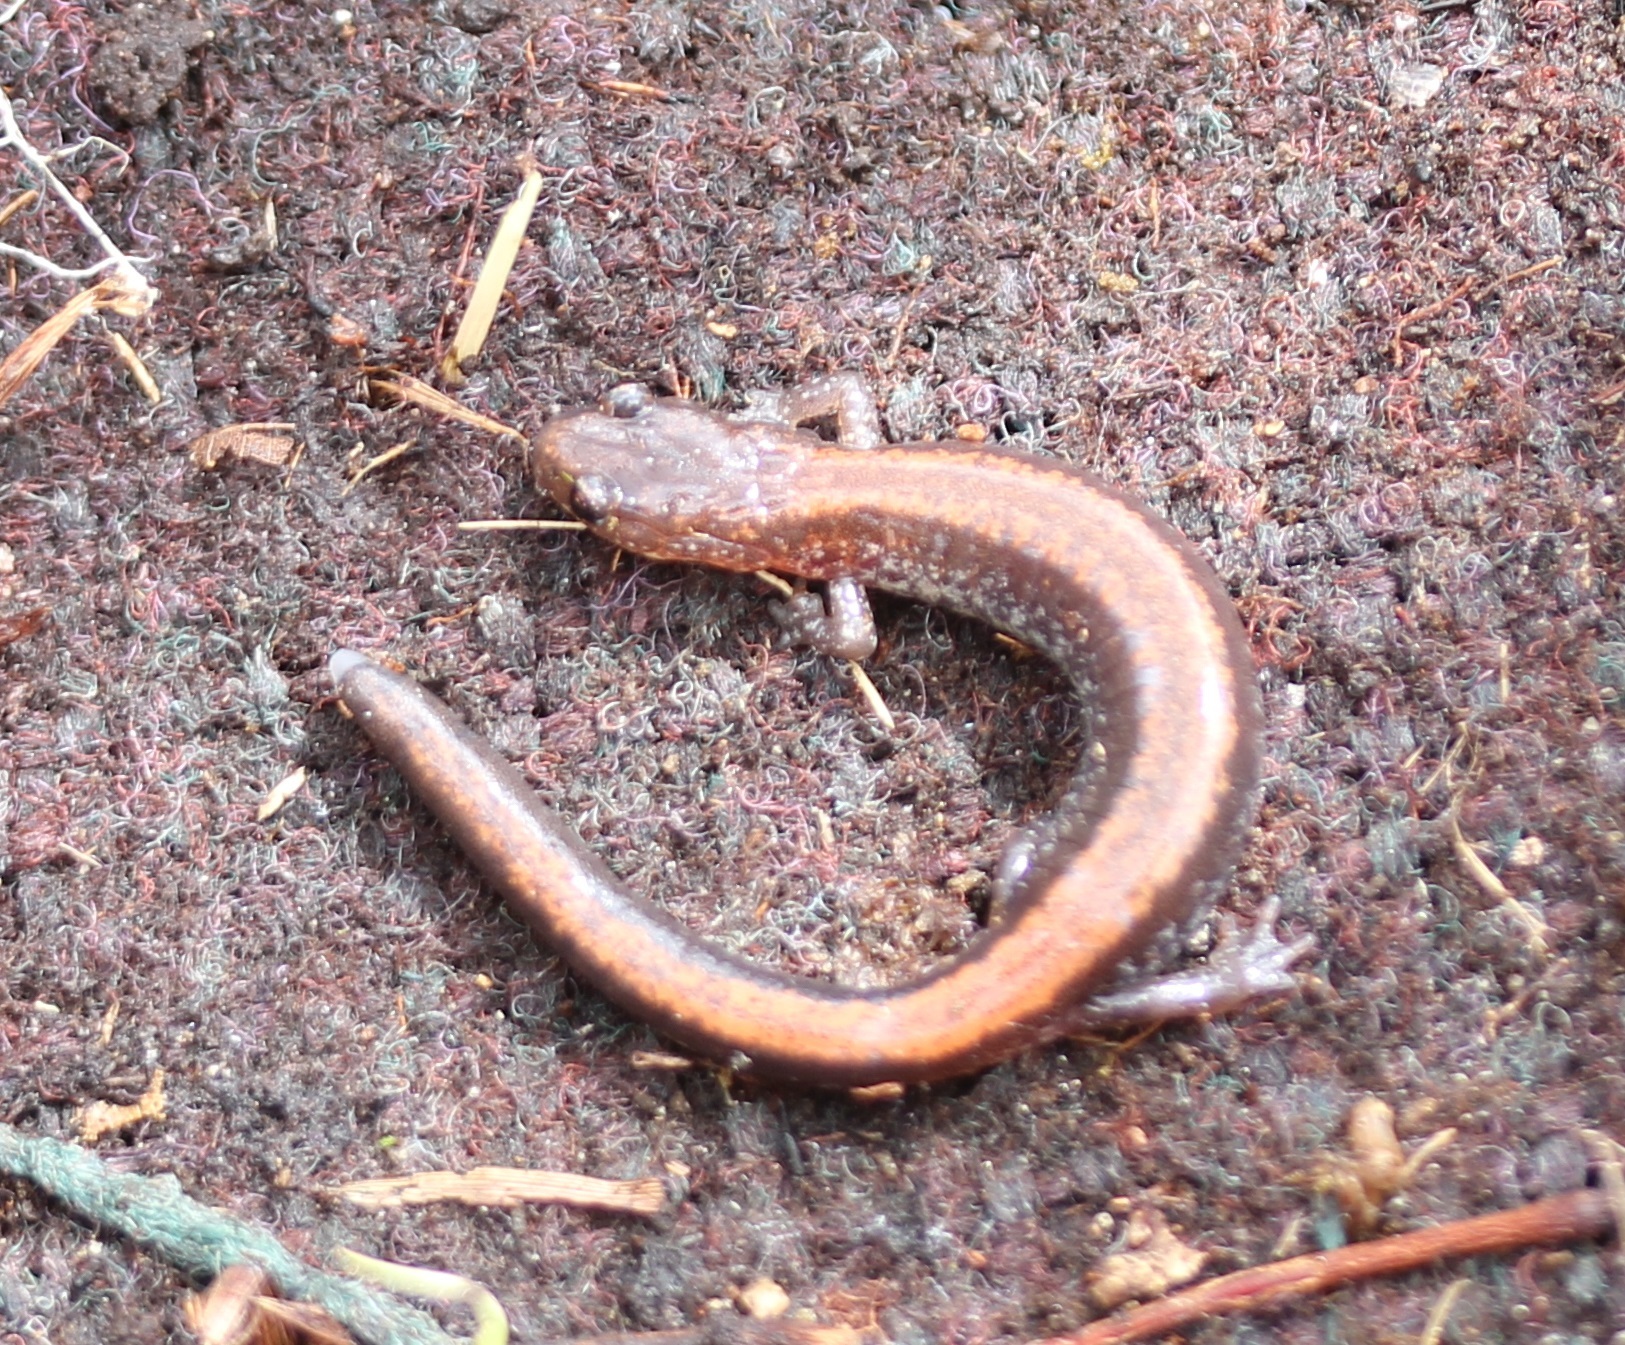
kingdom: Animalia
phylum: Chordata
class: Amphibia
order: Caudata
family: Plethodontidae
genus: Plethodon
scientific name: Plethodon cinereus
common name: Redback salamander
